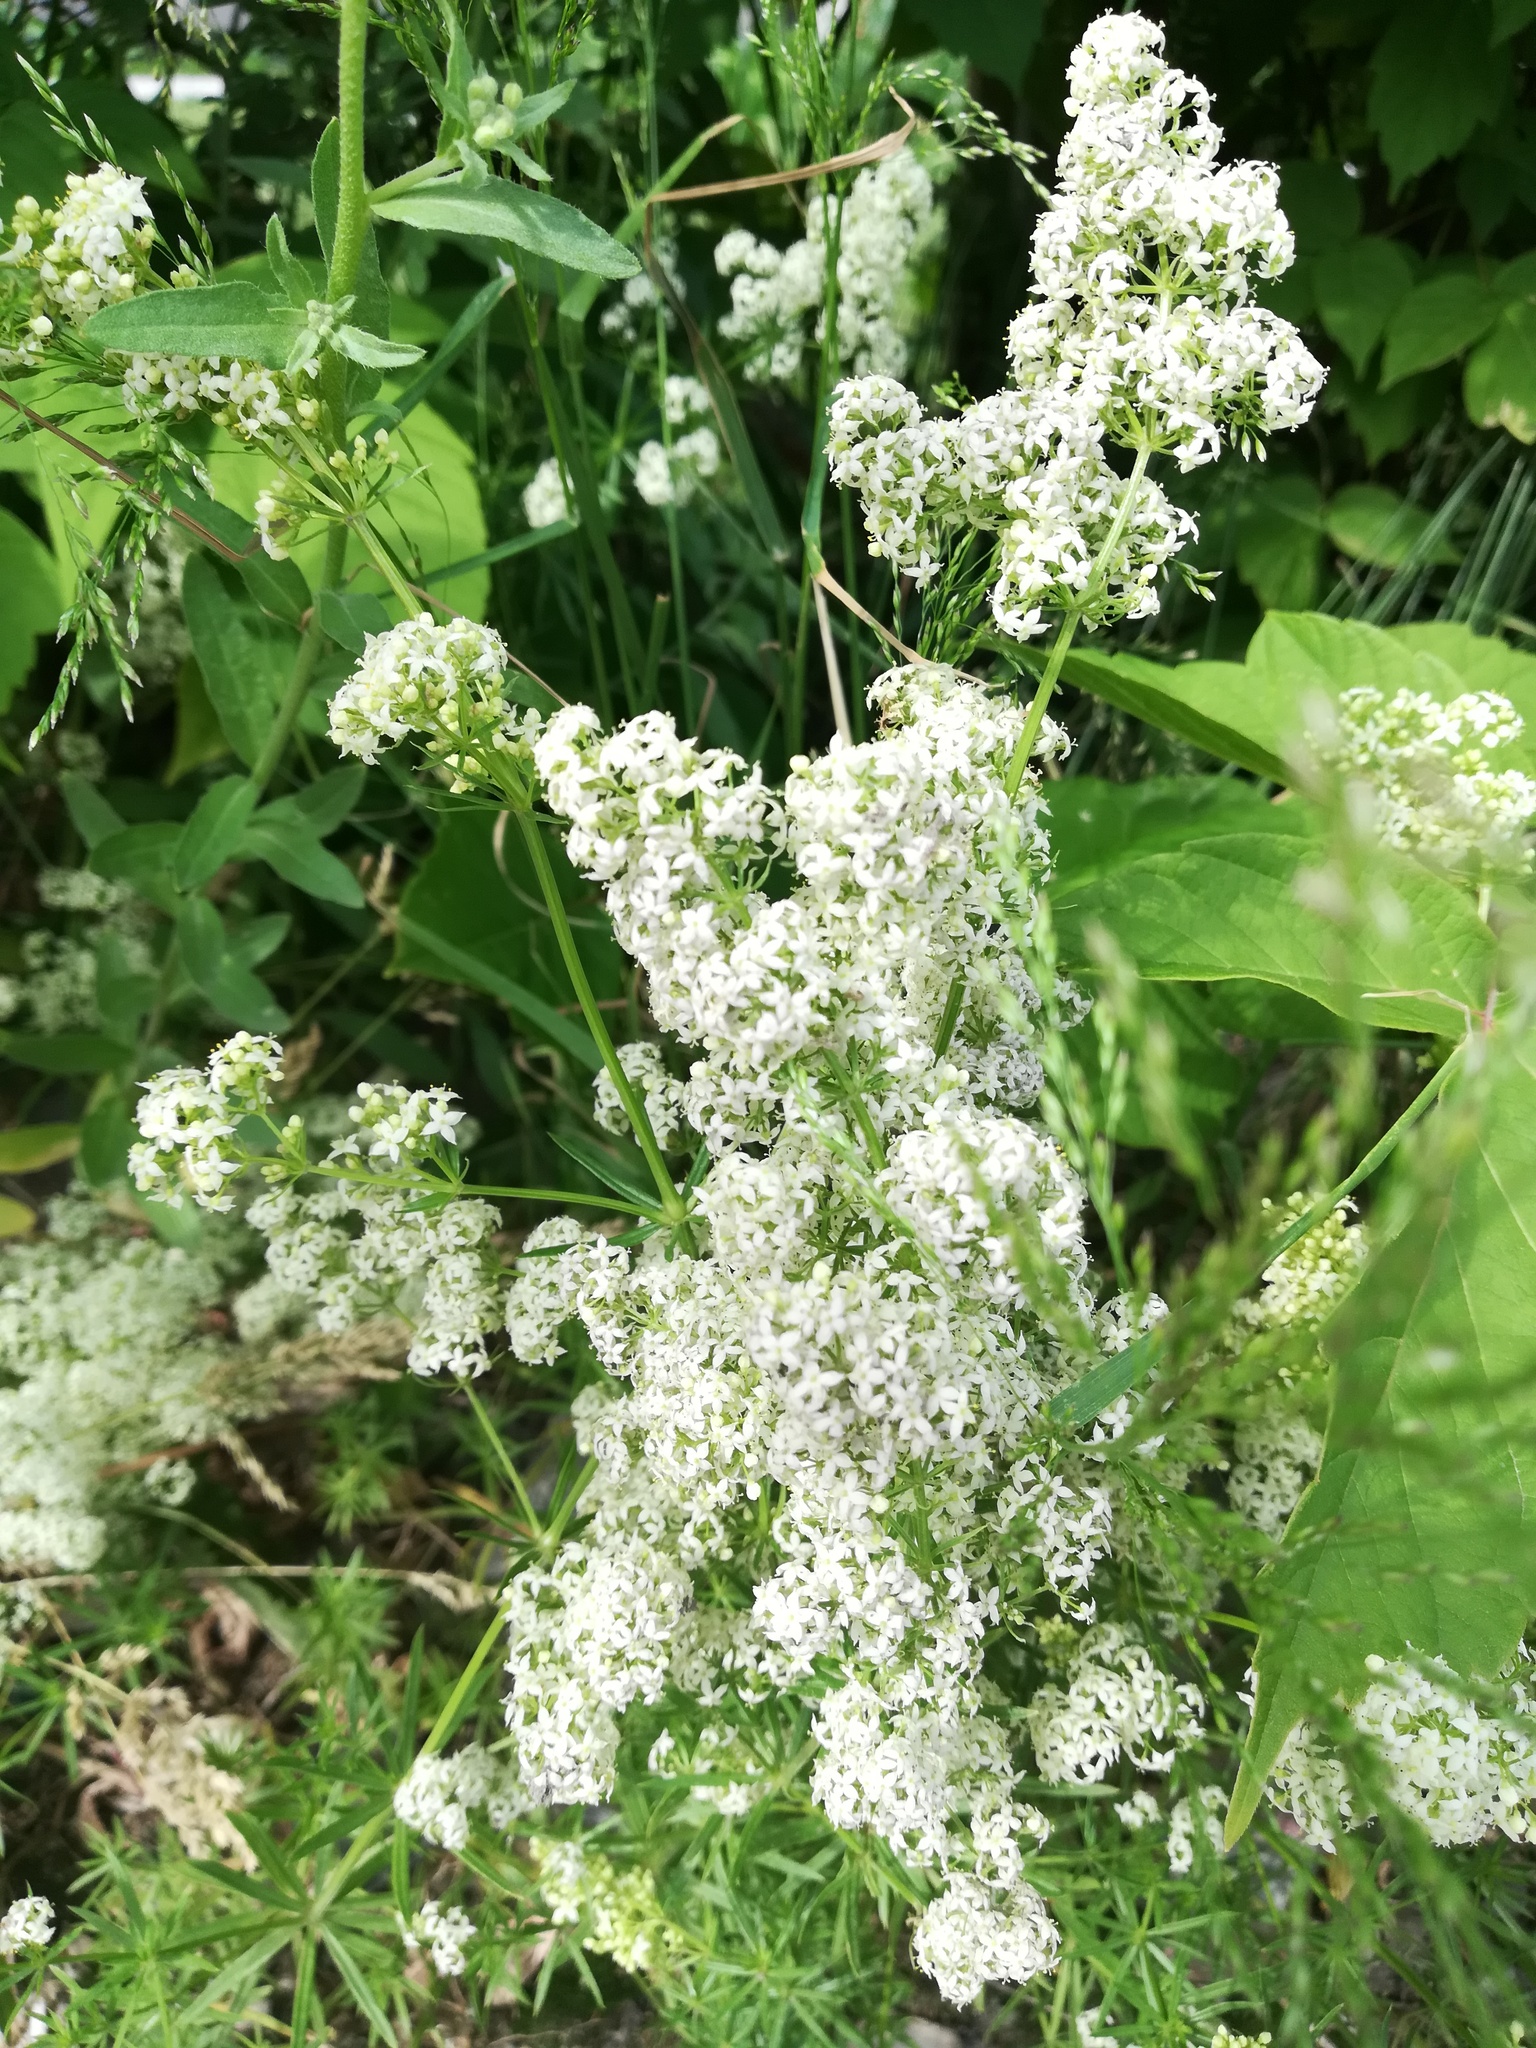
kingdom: Plantae
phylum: Tracheophyta
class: Magnoliopsida
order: Gentianales
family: Rubiaceae
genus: Galium
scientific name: Galium mollugo
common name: Hedge bedstraw
